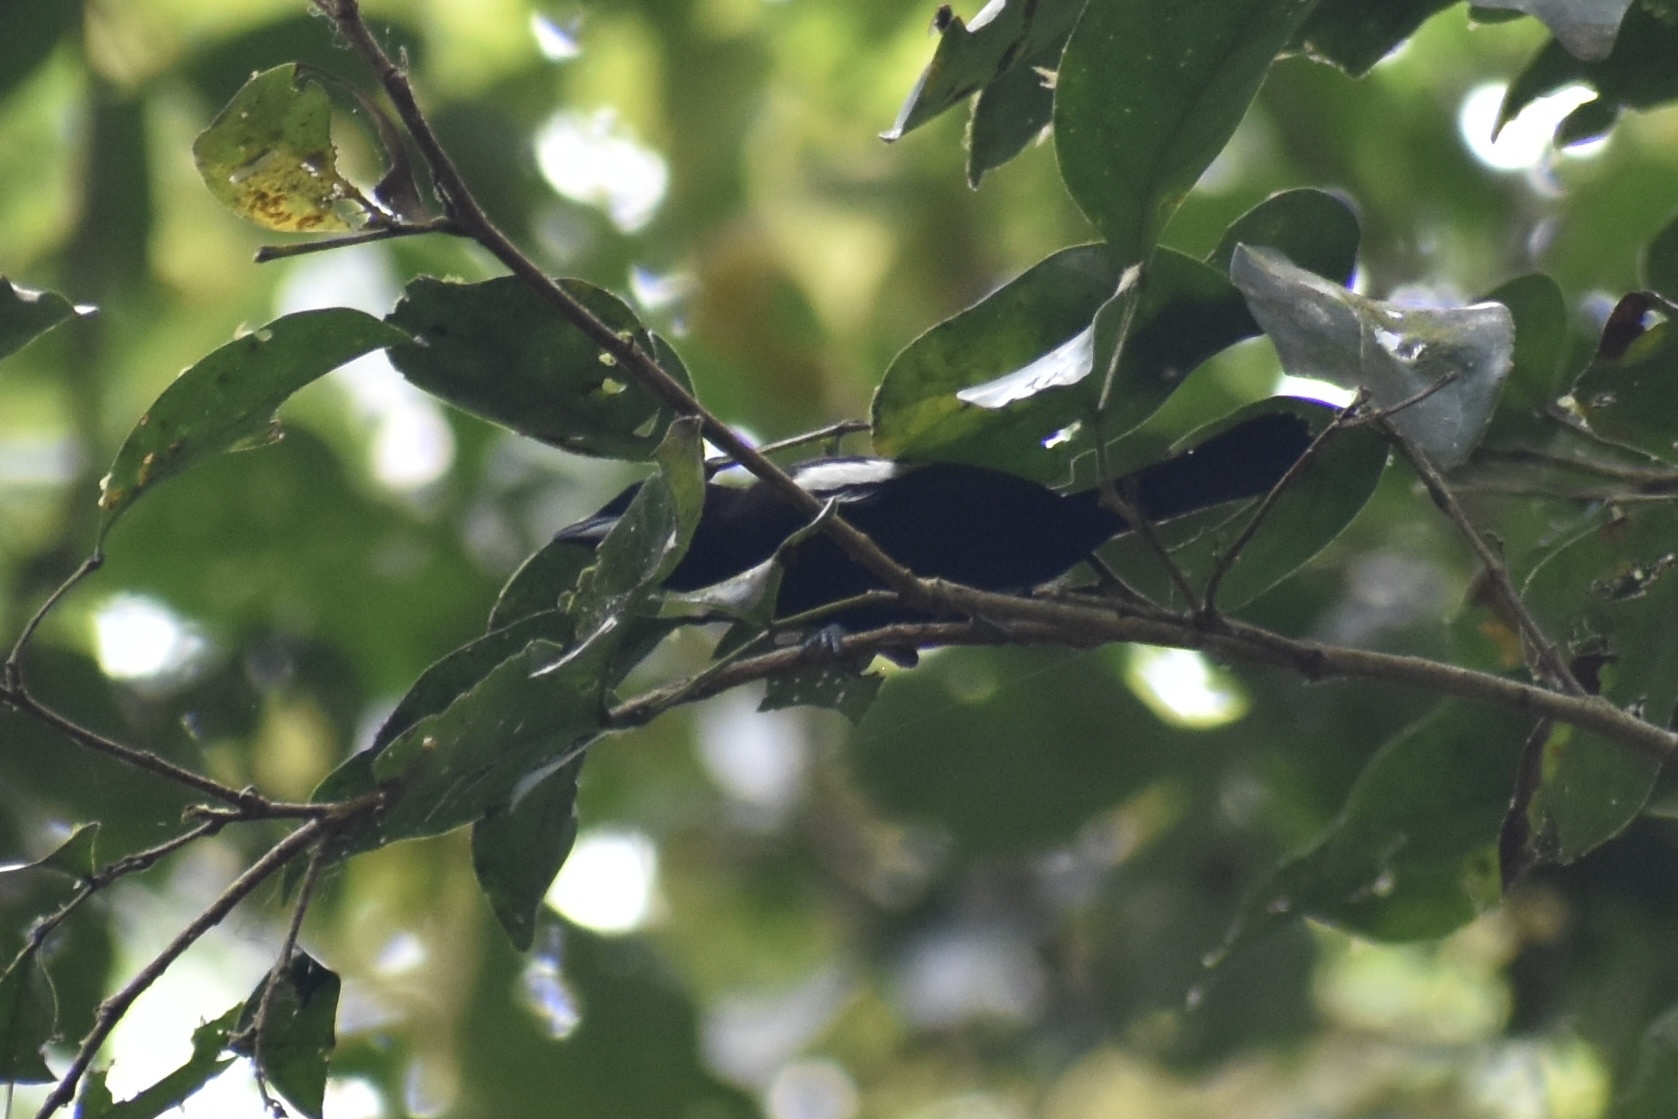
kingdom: Animalia
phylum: Chordata
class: Aves
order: Passeriformes
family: Thraupidae
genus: Loriotus
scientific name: Loriotus luctuosus
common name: White-shouldered tanager
